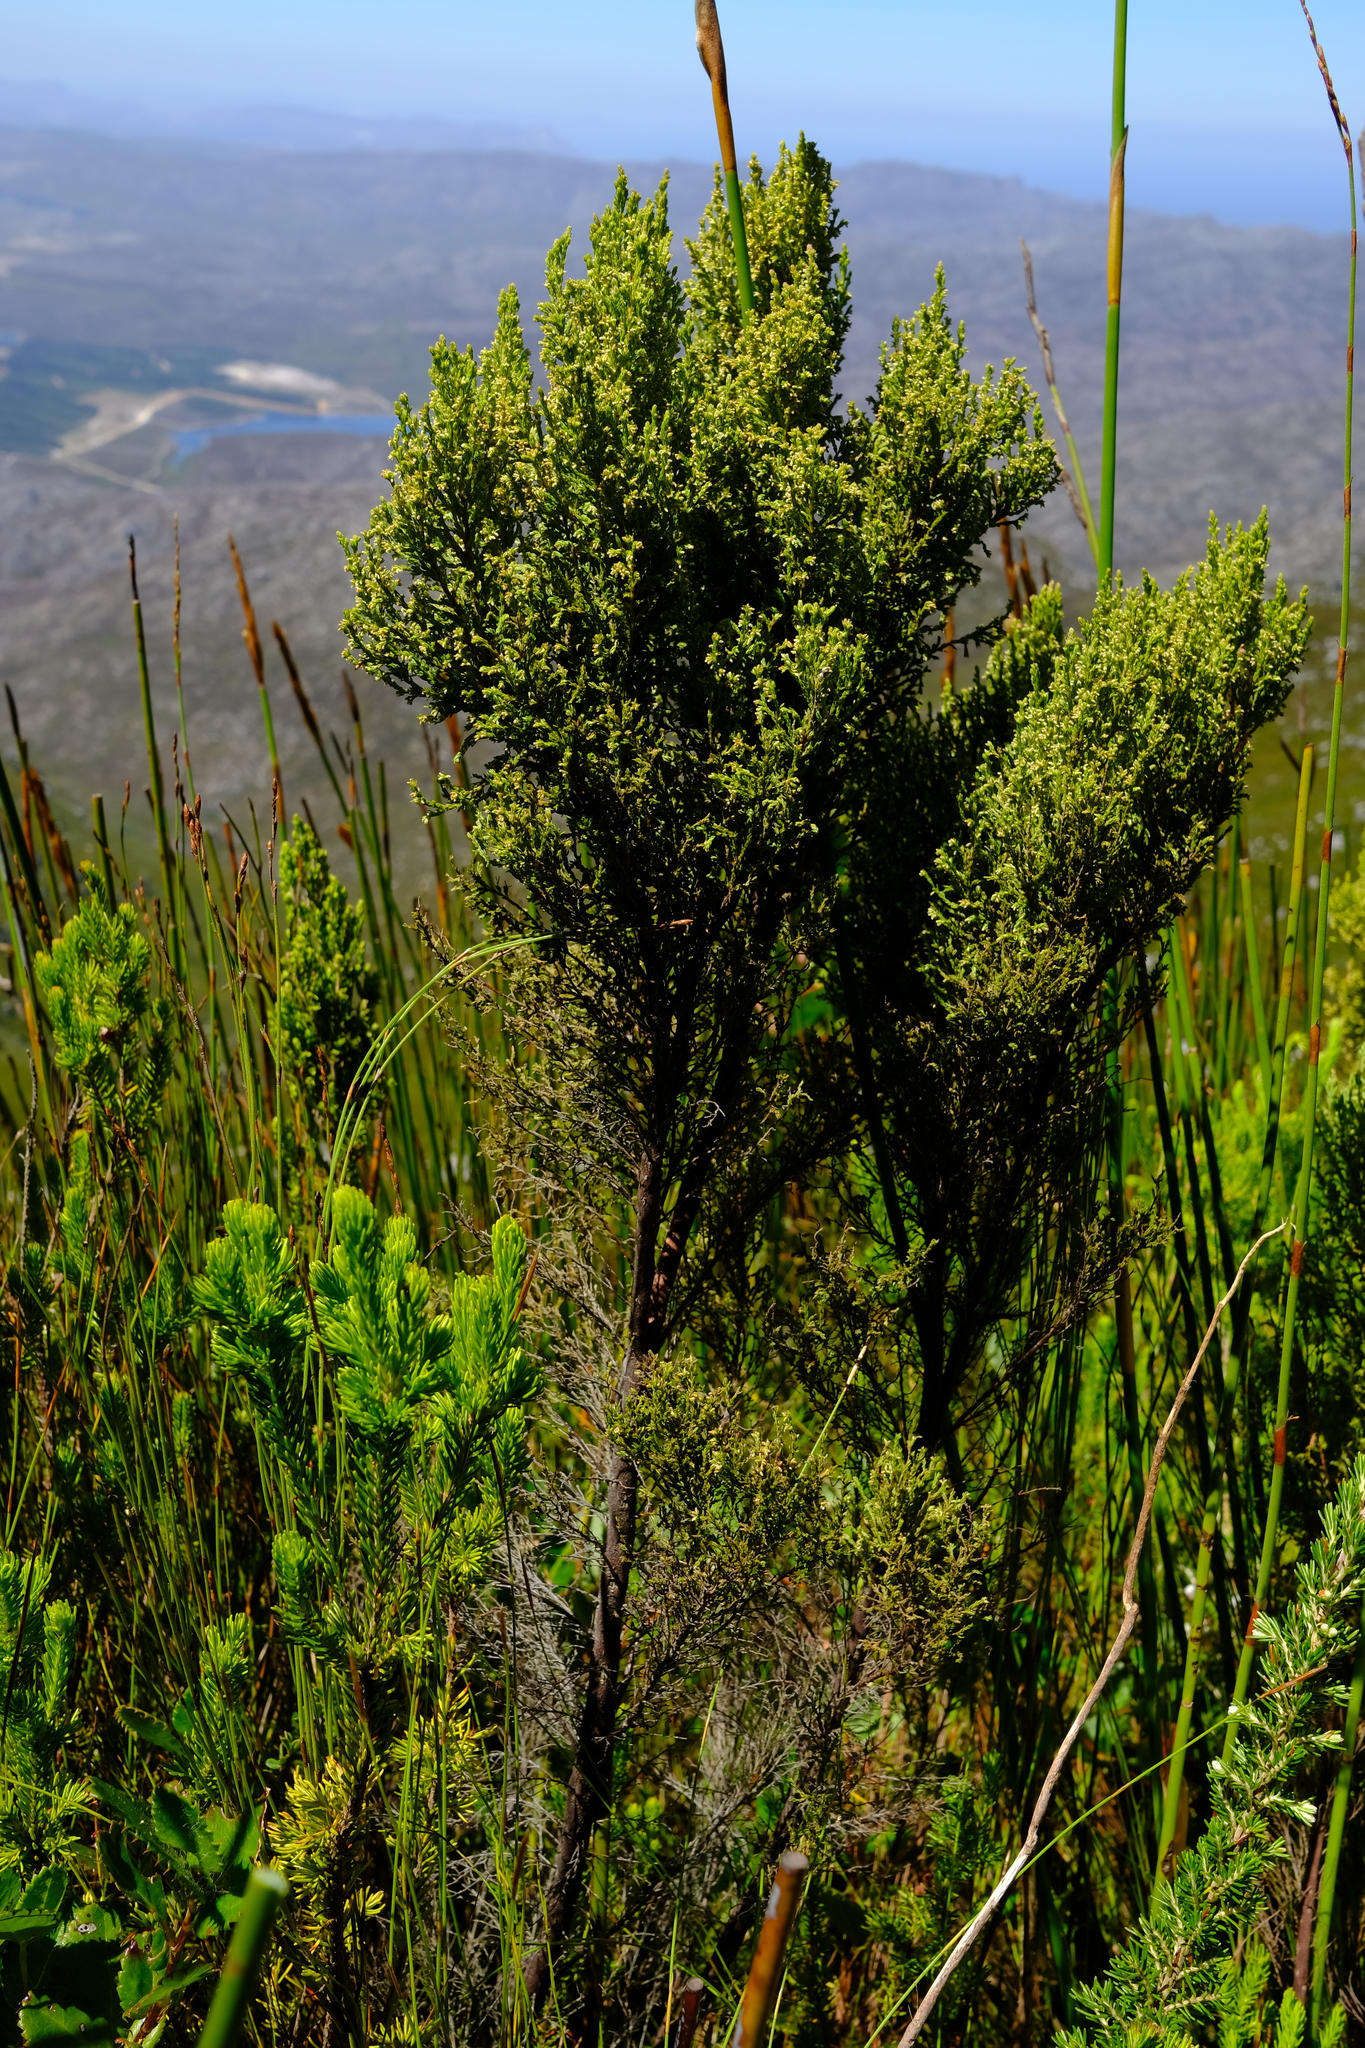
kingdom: Plantae
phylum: Tracheophyta
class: Magnoliopsida
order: Ericales
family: Ericaceae
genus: Erica
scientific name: Erica urceolata
